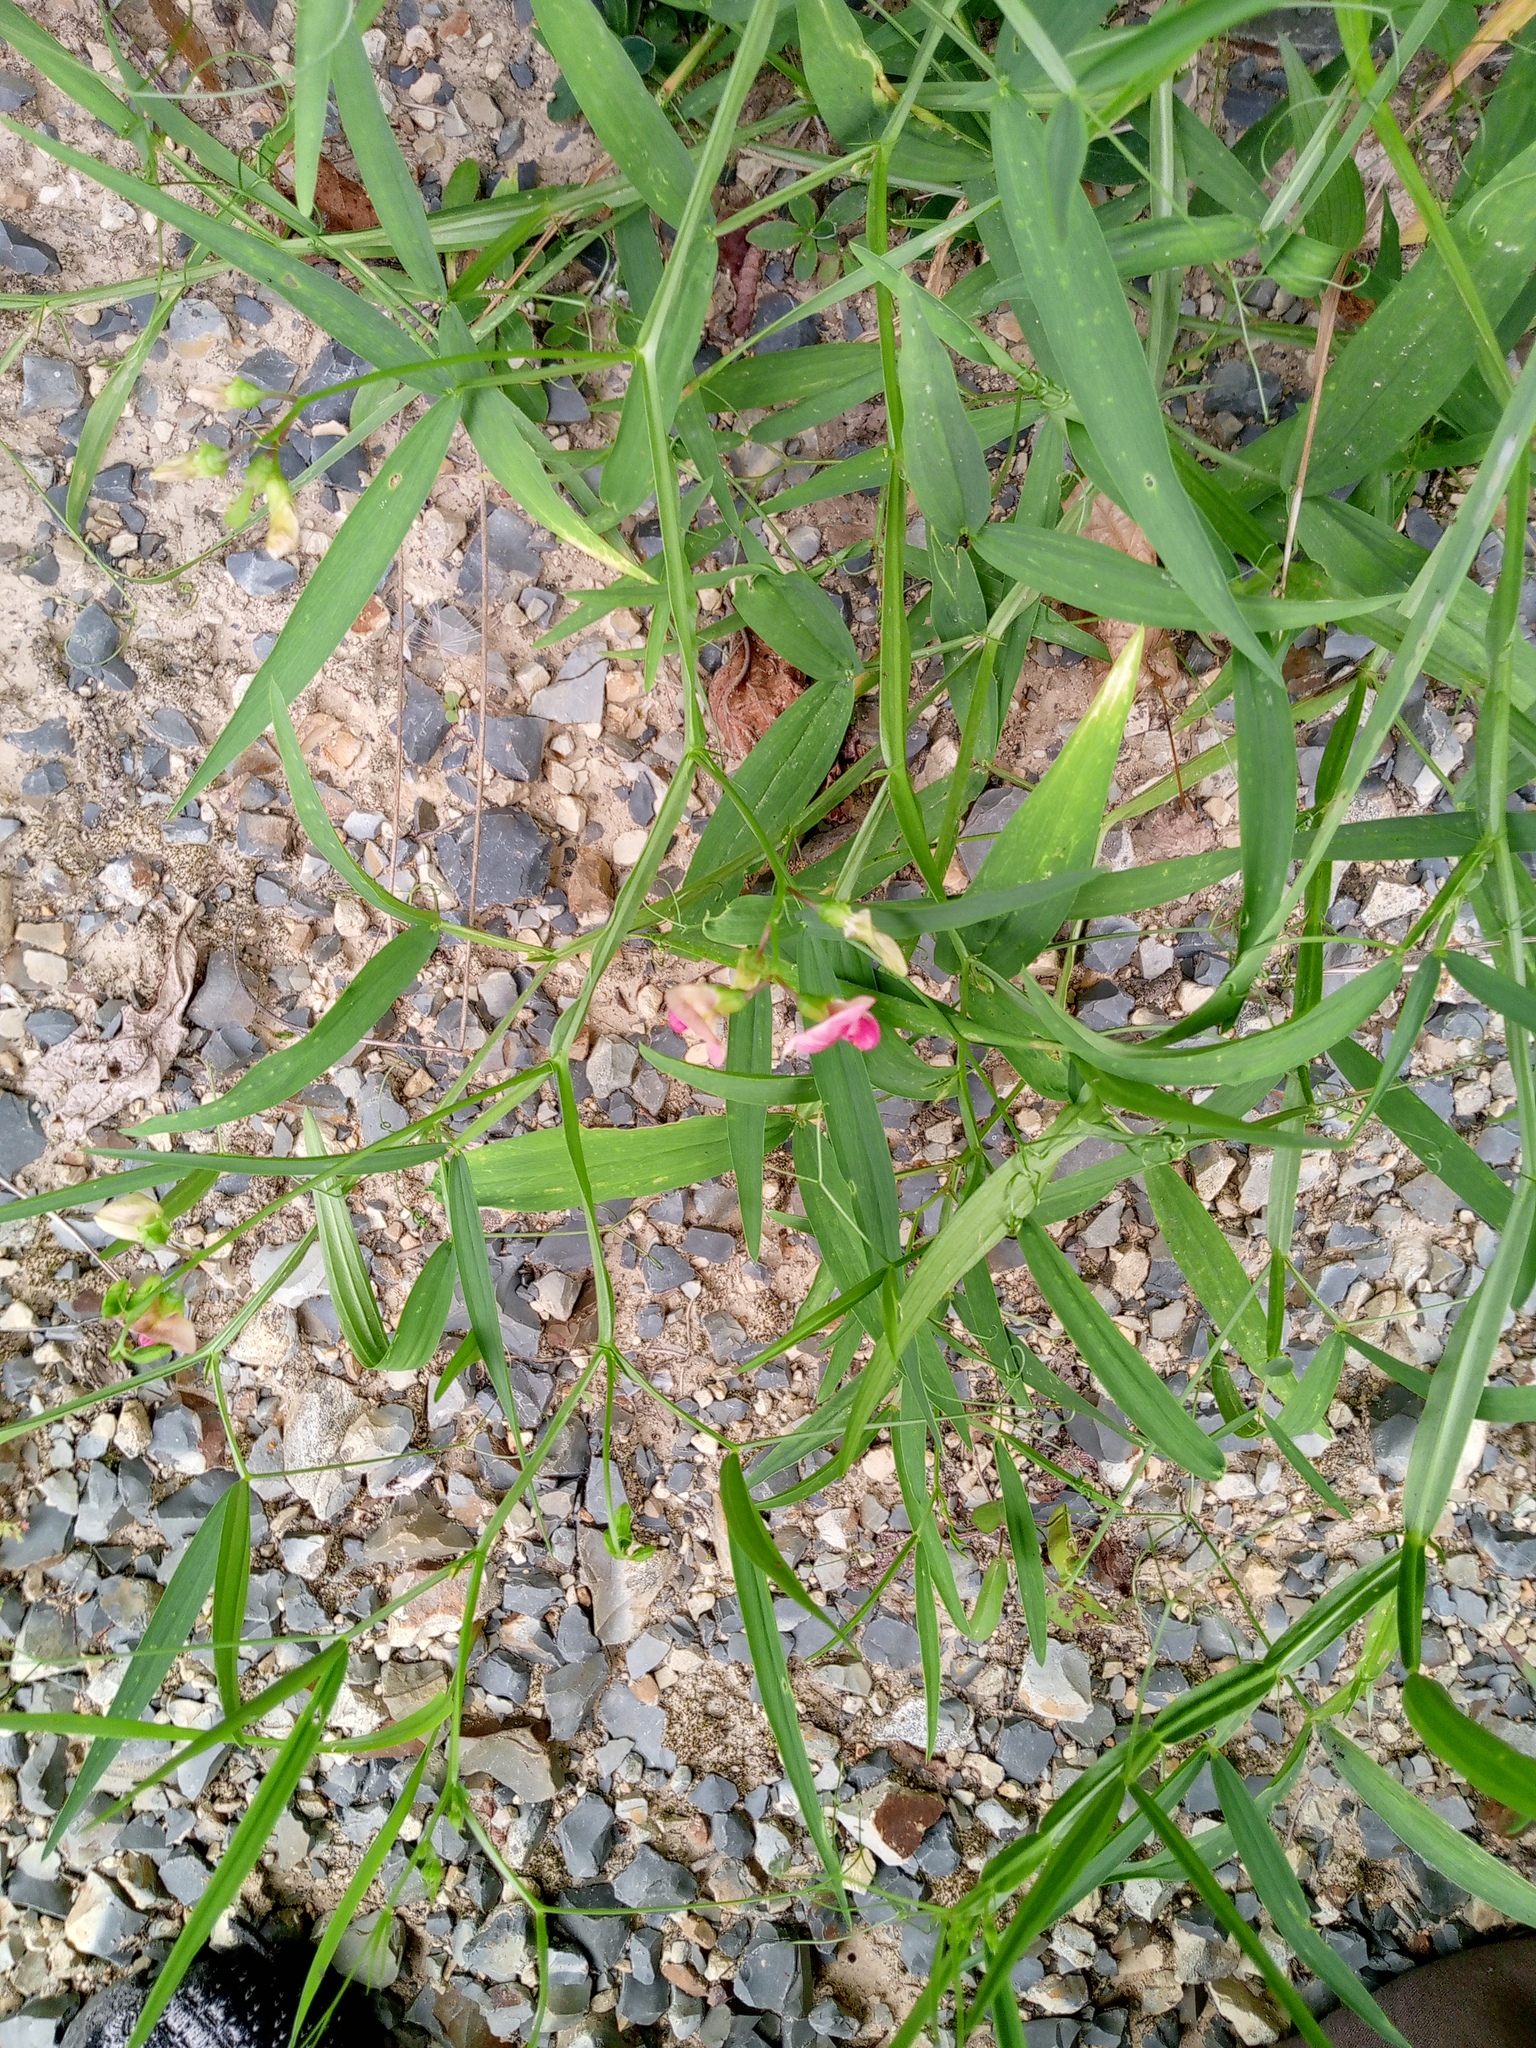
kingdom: Plantae
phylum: Tracheophyta
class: Magnoliopsida
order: Fabales
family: Fabaceae
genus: Lathyrus
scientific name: Lathyrus sylvestris
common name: Flat pea
